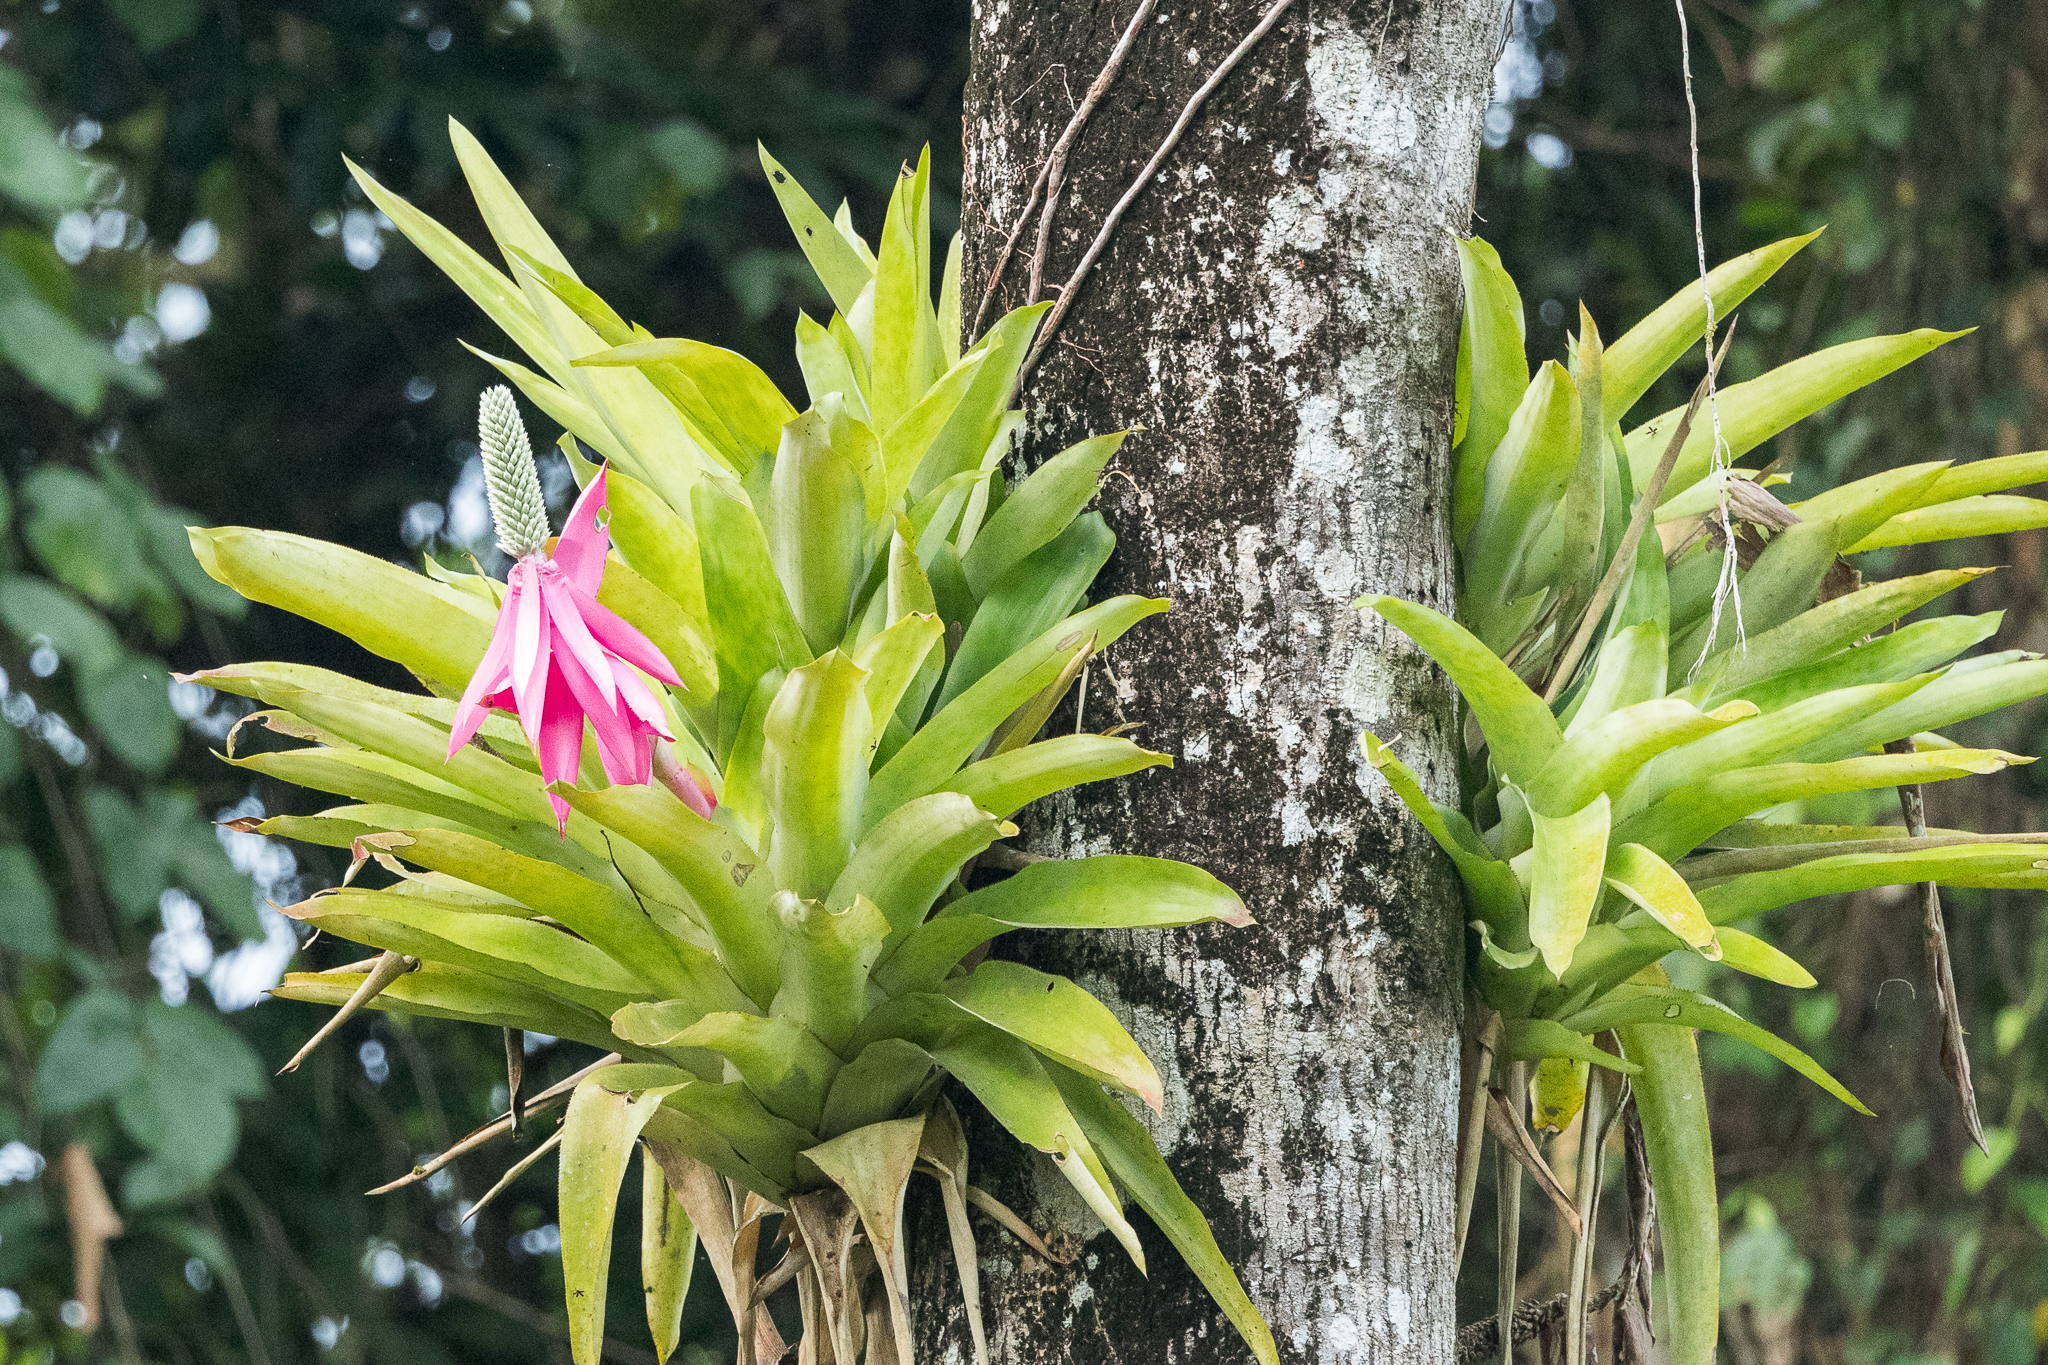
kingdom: Plantae
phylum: Tracheophyta
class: Liliopsida
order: Poales
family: Bromeliaceae
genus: Aechmea
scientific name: Aechmea mariae-reginae
